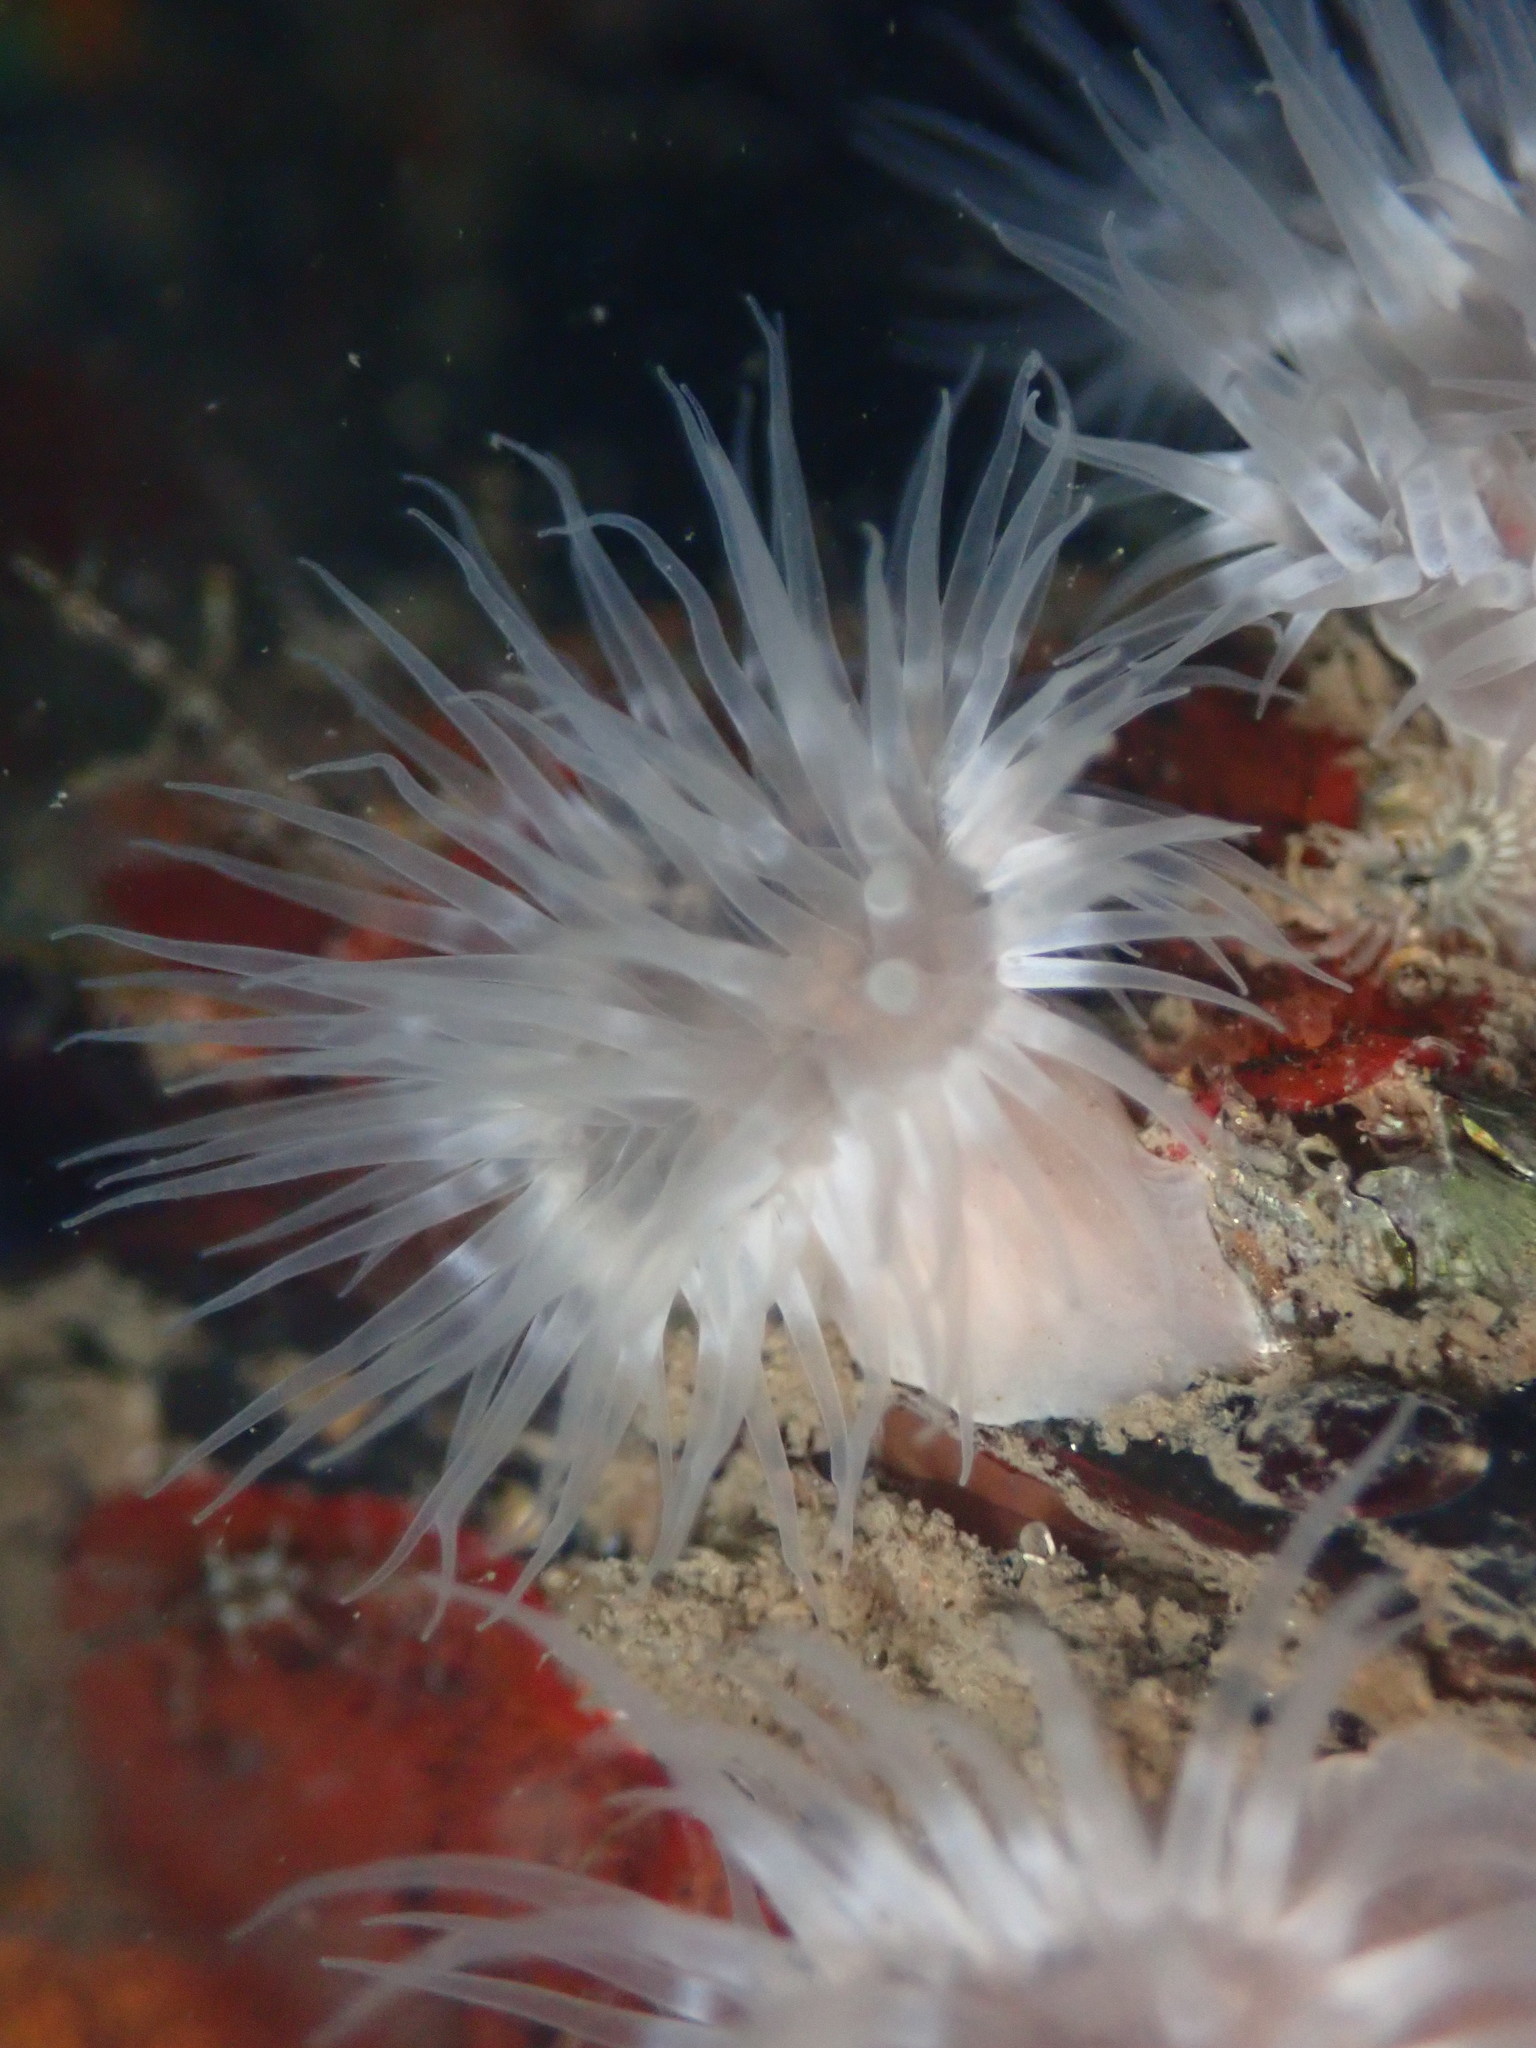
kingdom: Animalia
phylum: Cnidaria
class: Anthozoa
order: Actiniaria
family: Metridiidae
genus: Metridium
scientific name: Metridium senile
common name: Clonal plumose anemone
